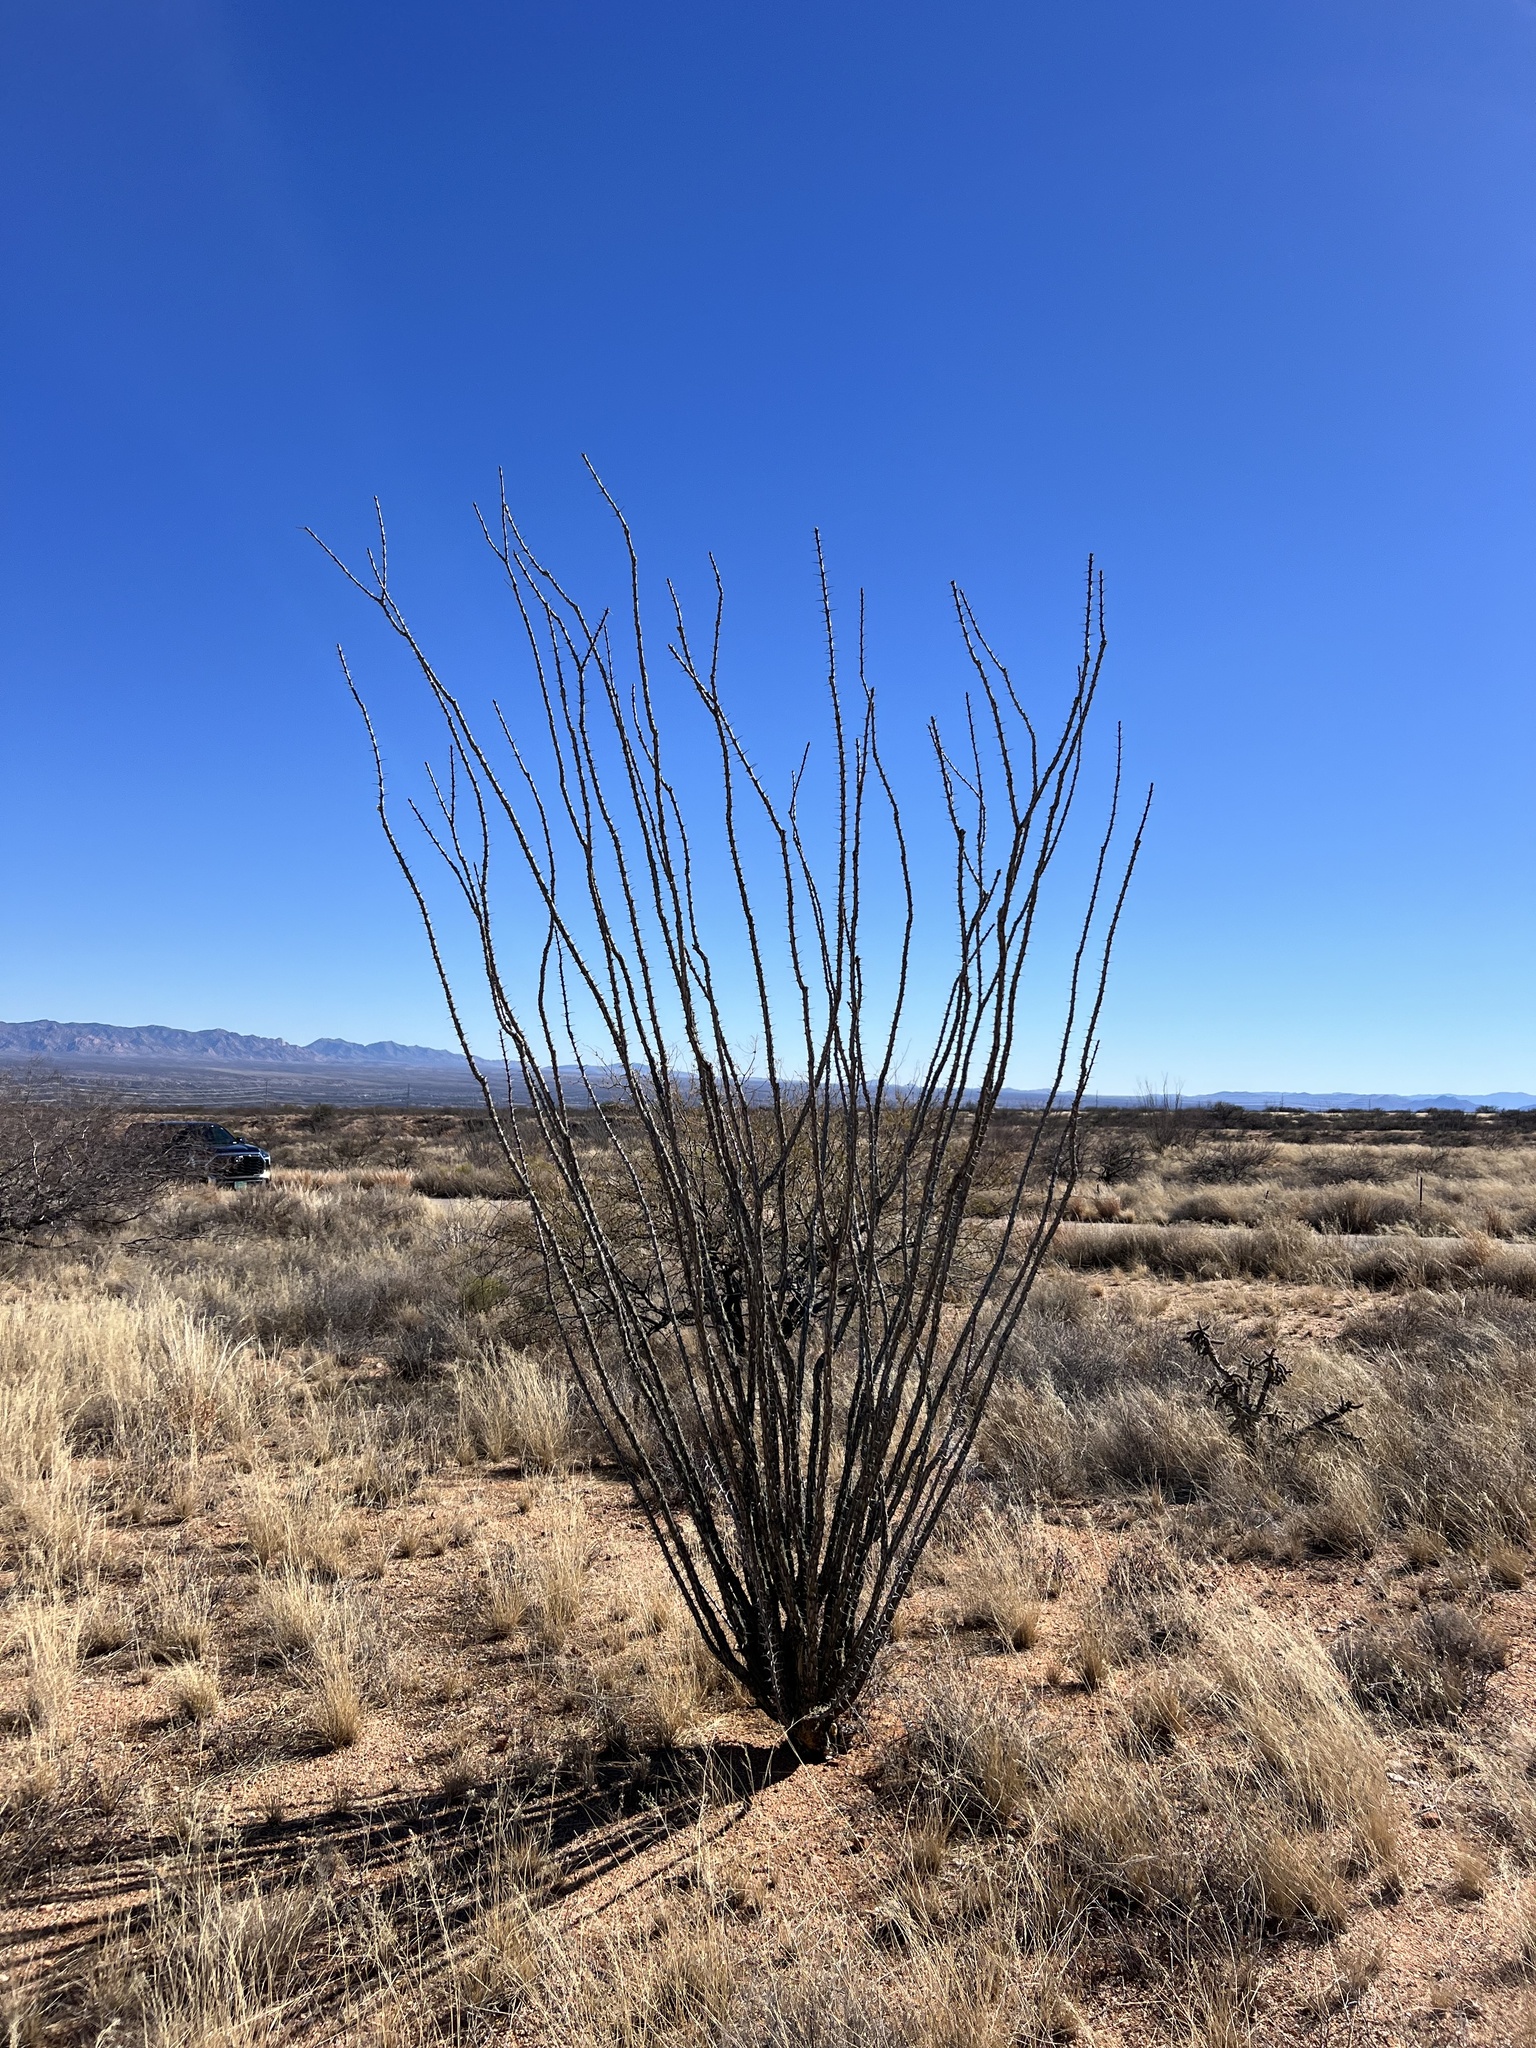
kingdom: Plantae
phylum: Tracheophyta
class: Magnoliopsida
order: Ericales
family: Fouquieriaceae
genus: Fouquieria
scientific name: Fouquieria splendens
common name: Vine-cactus
